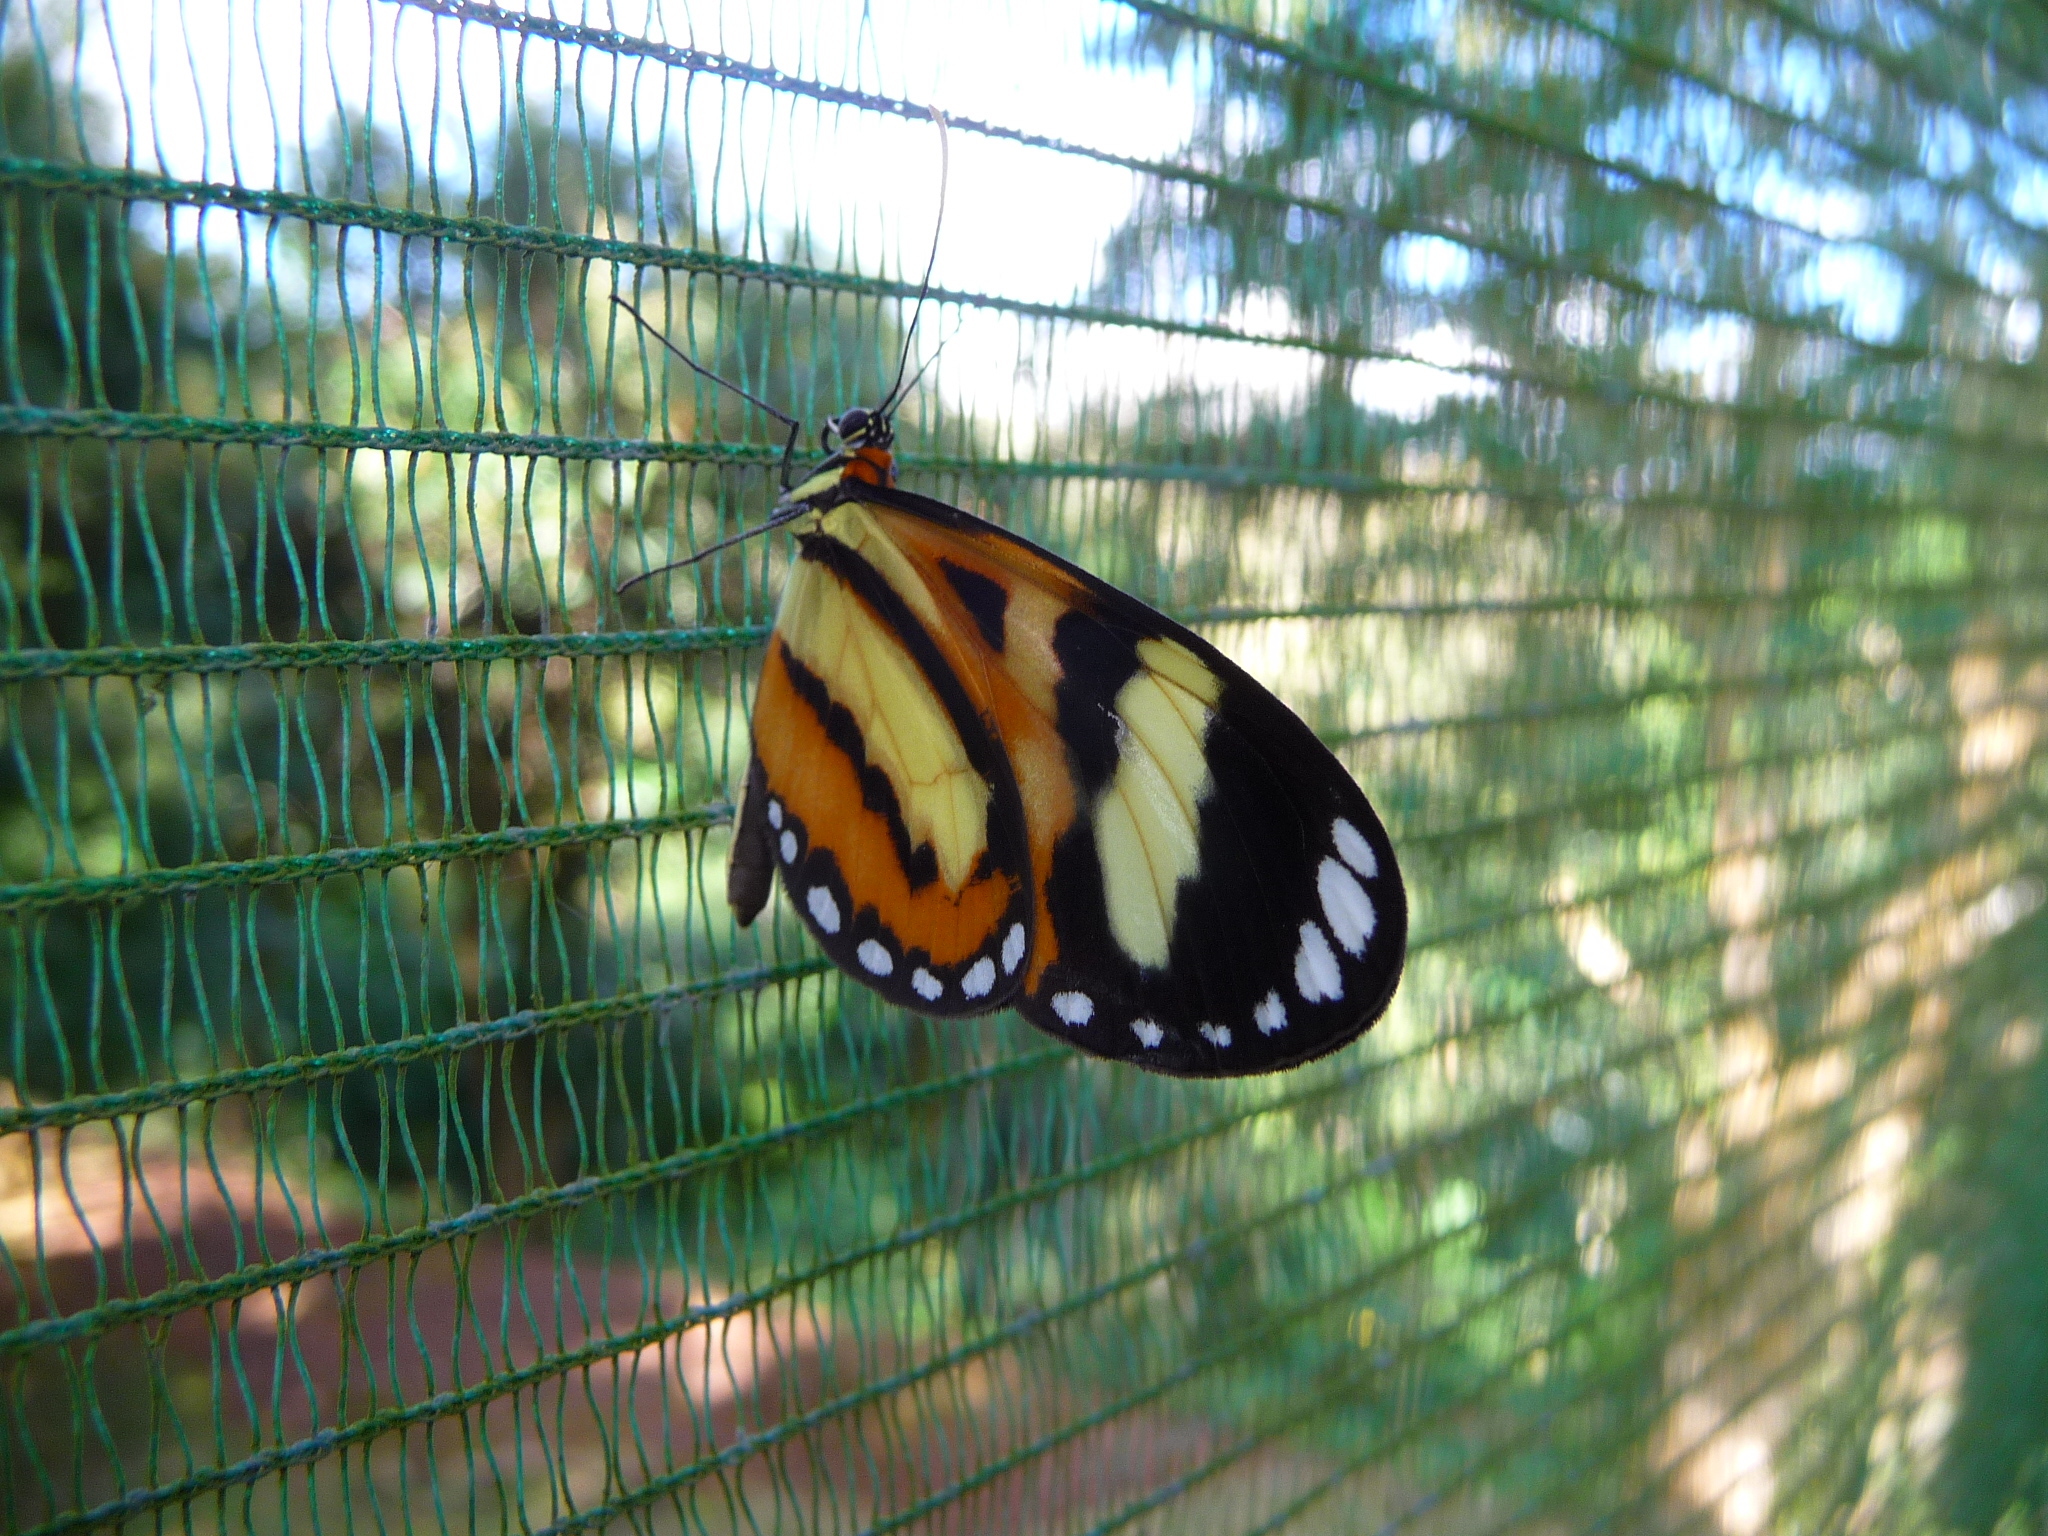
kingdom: Animalia
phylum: Arthropoda
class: Insecta
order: Lepidoptera
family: Nymphalidae
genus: Hypothyris
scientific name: Hypothyris ninonia
